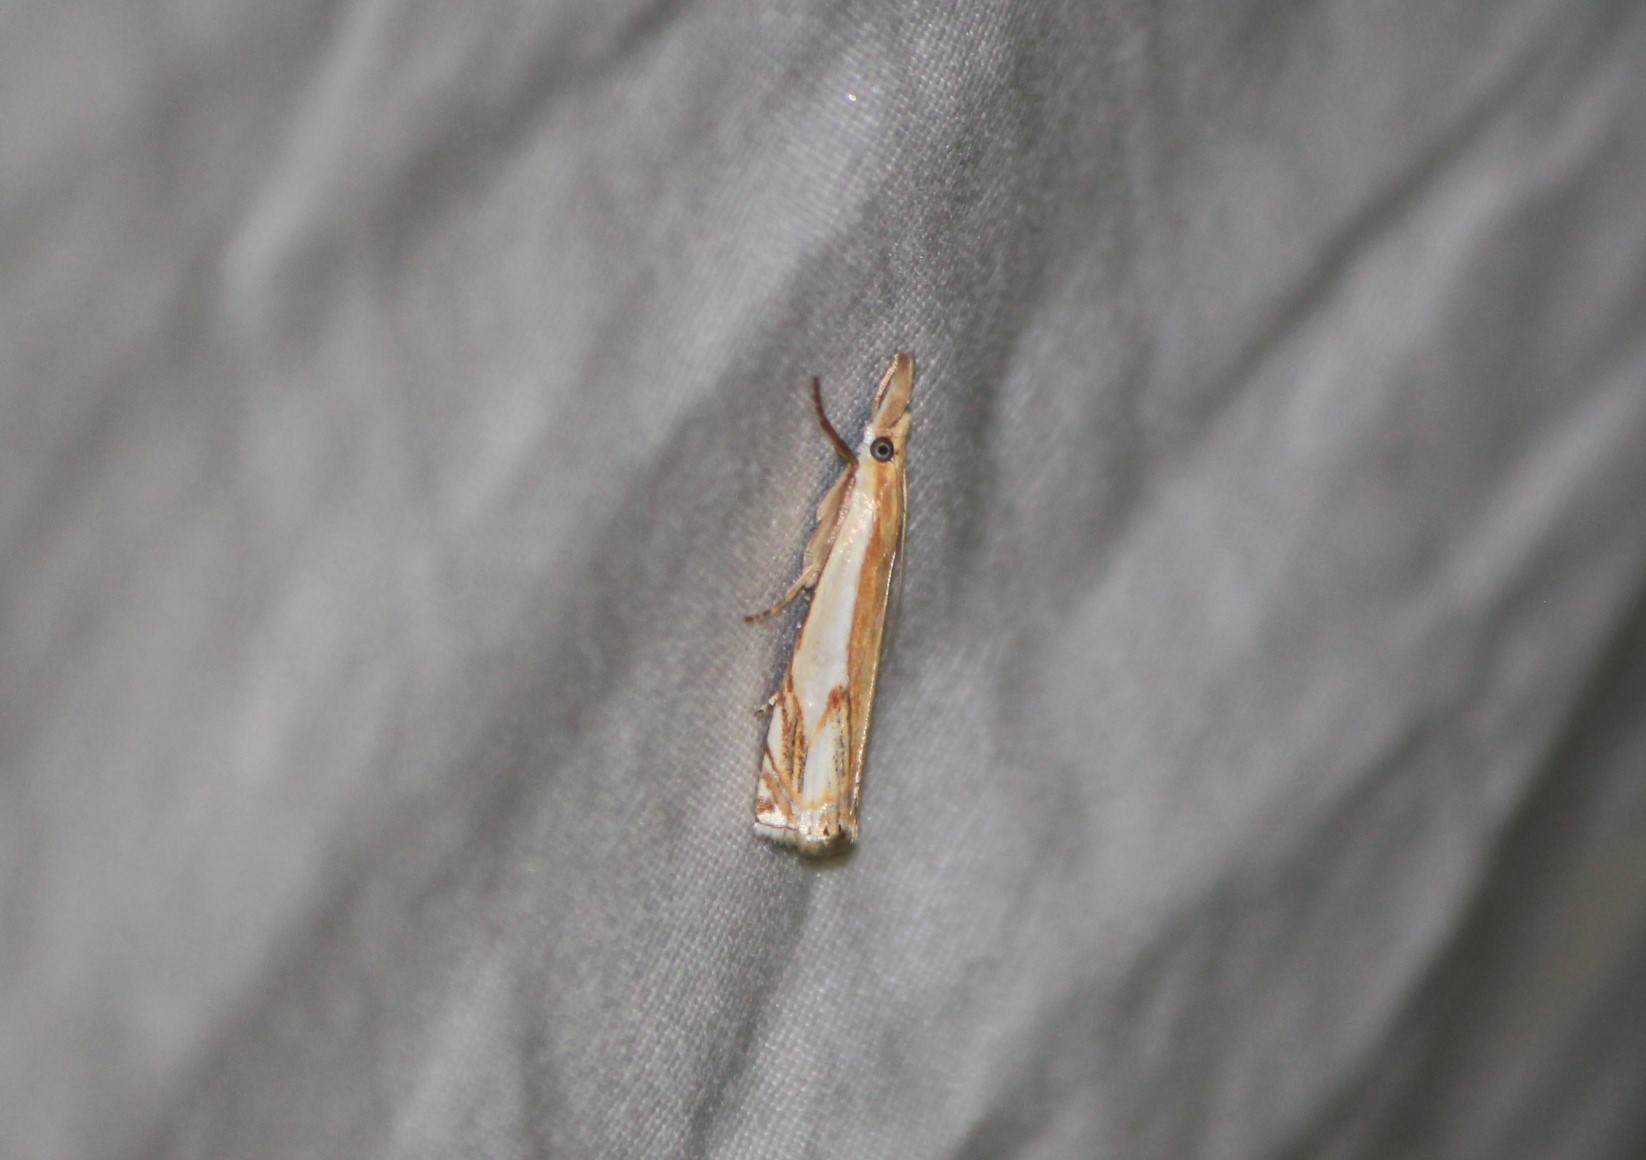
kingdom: Animalia
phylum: Arthropoda
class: Insecta
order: Lepidoptera
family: Crambidae
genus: Crambus
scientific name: Crambus agitatellus
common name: Double-banded grass-veneer
